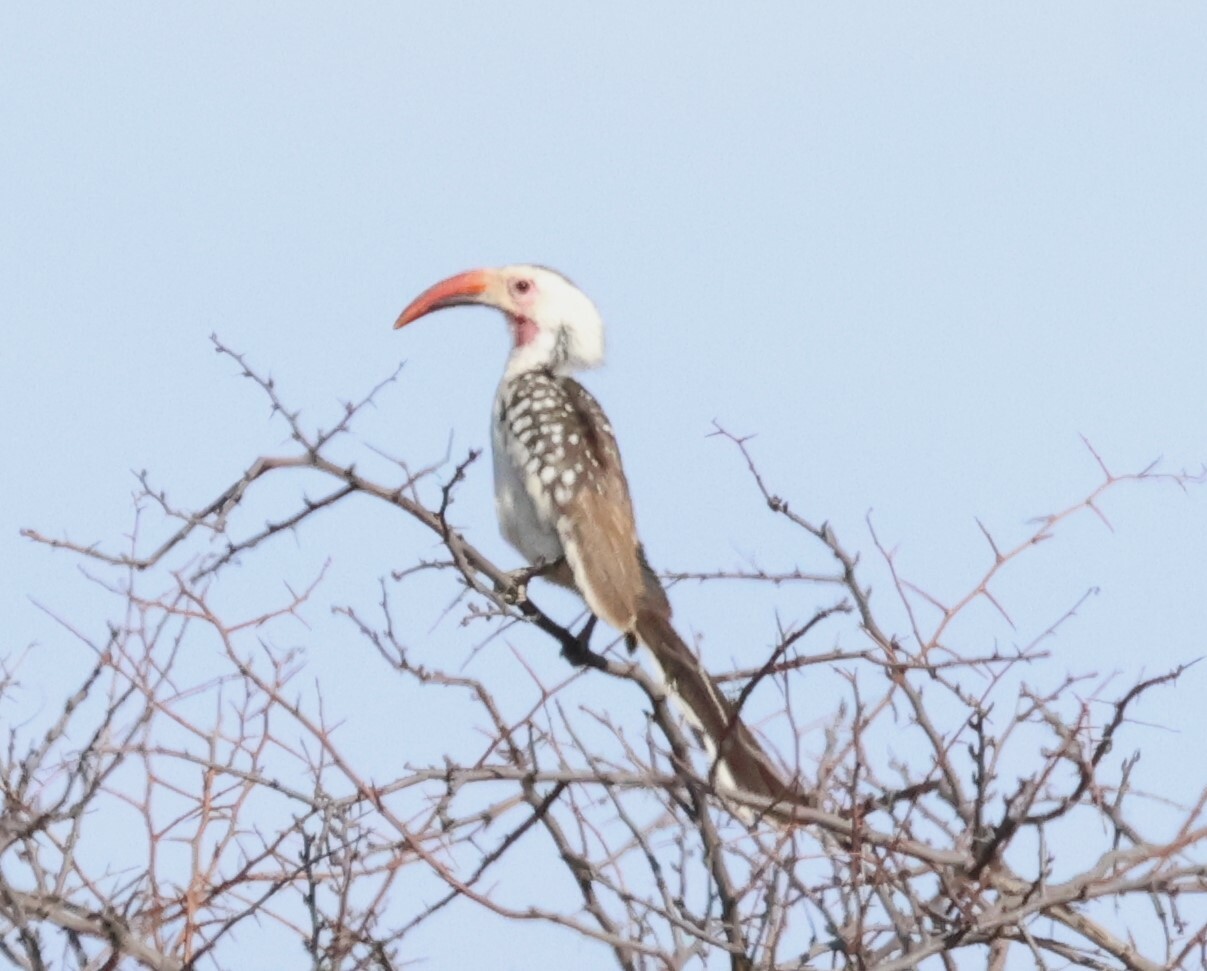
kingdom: Animalia
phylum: Chordata
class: Aves
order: Bucerotiformes
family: Bucerotidae
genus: Tockus
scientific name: Tockus damarensis
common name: Damara red-billed hornbill
